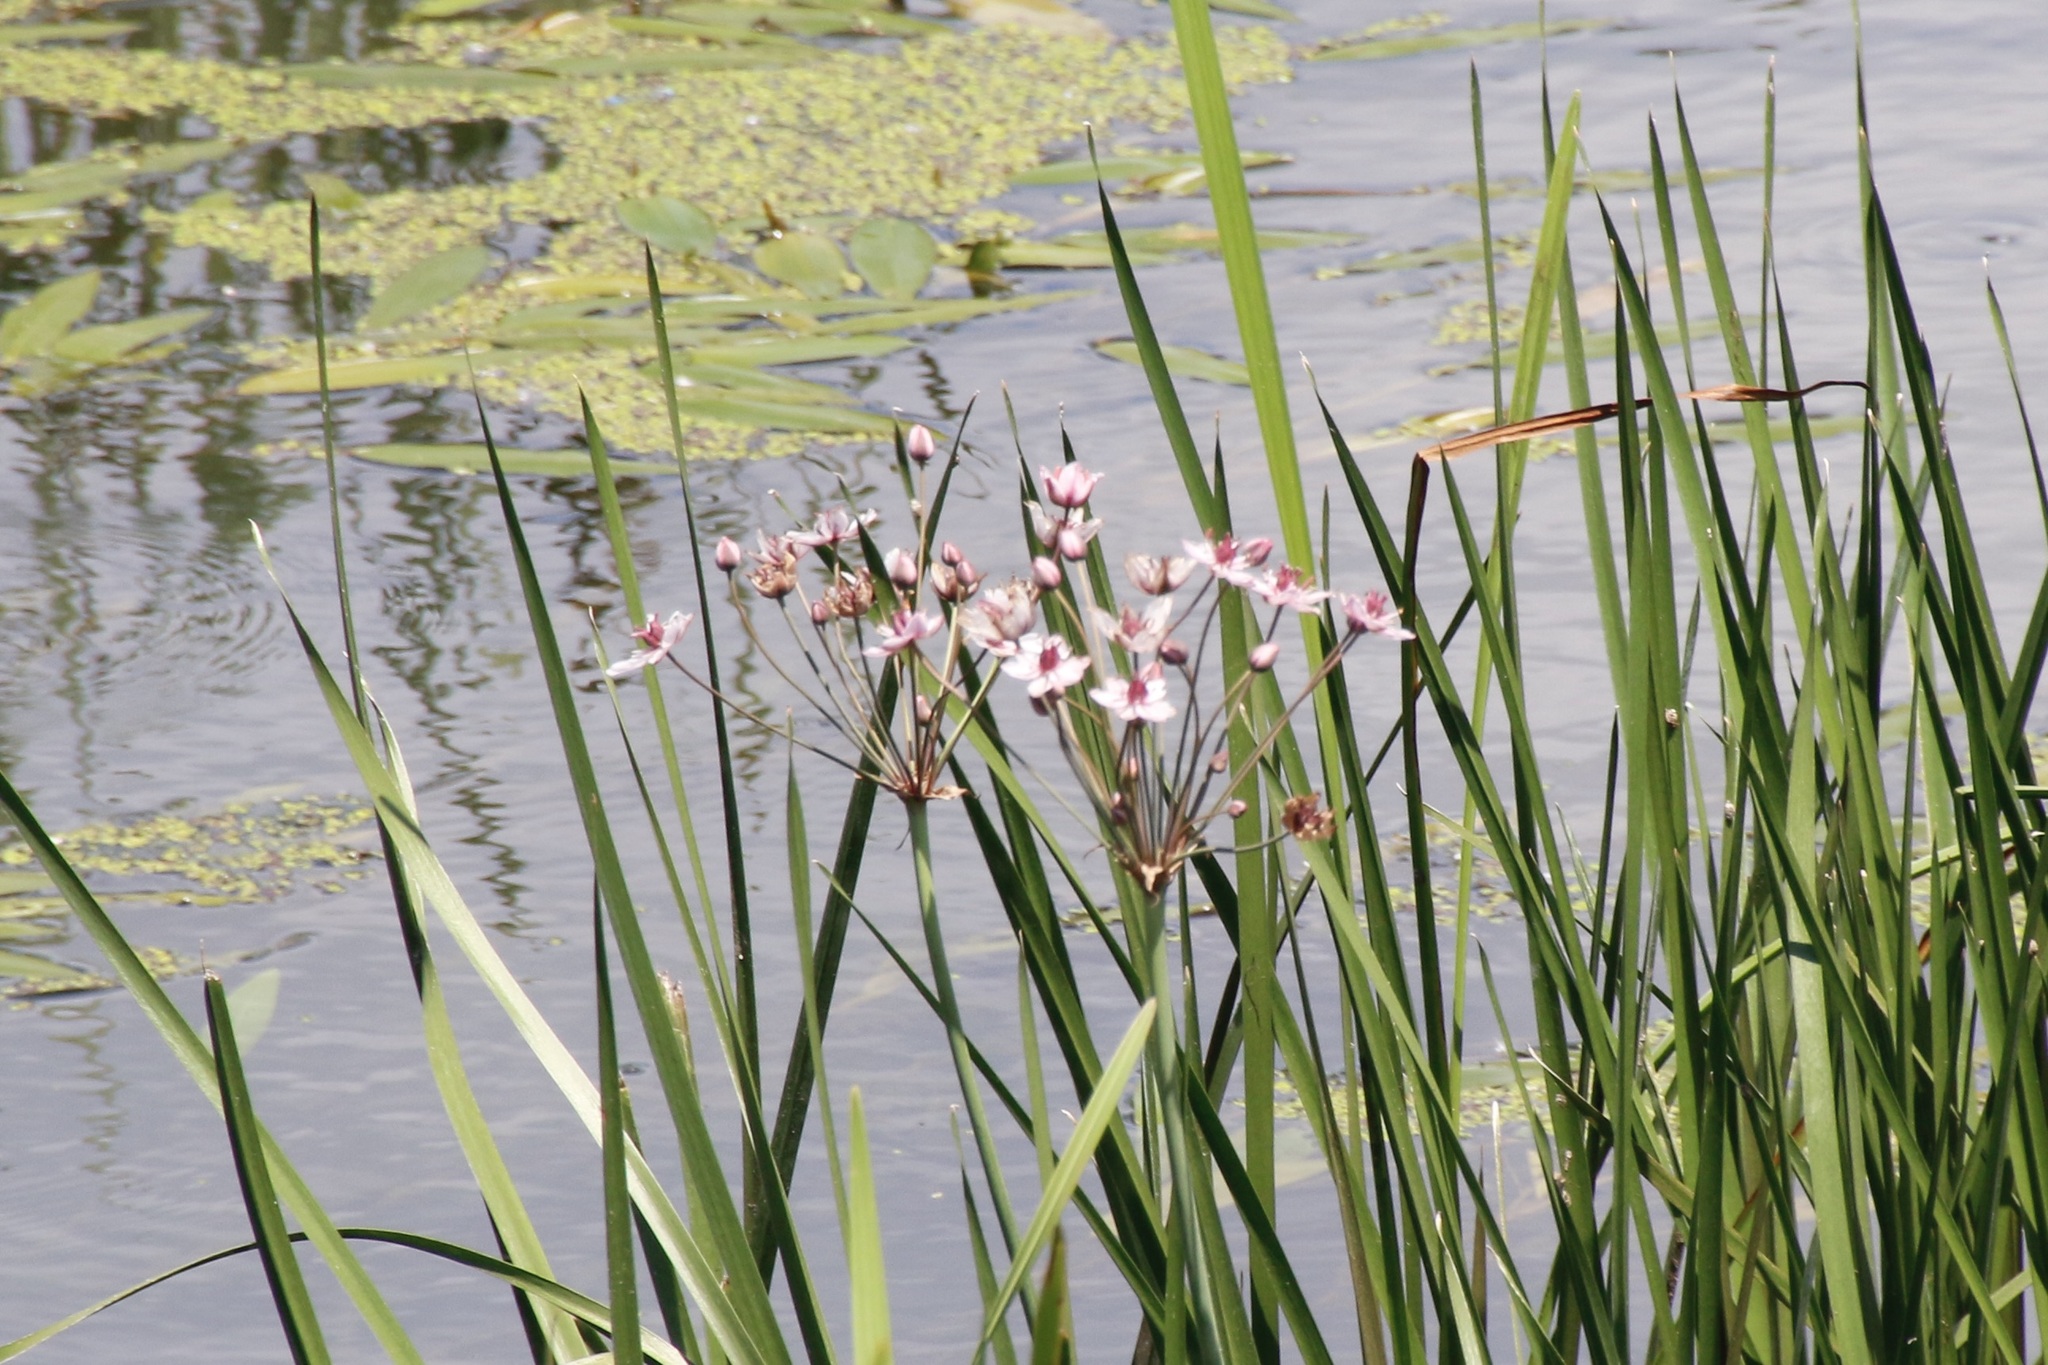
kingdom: Plantae
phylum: Tracheophyta
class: Liliopsida
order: Alismatales
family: Butomaceae
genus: Butomus
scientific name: Butomus umbellatus
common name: Flowering-rush
